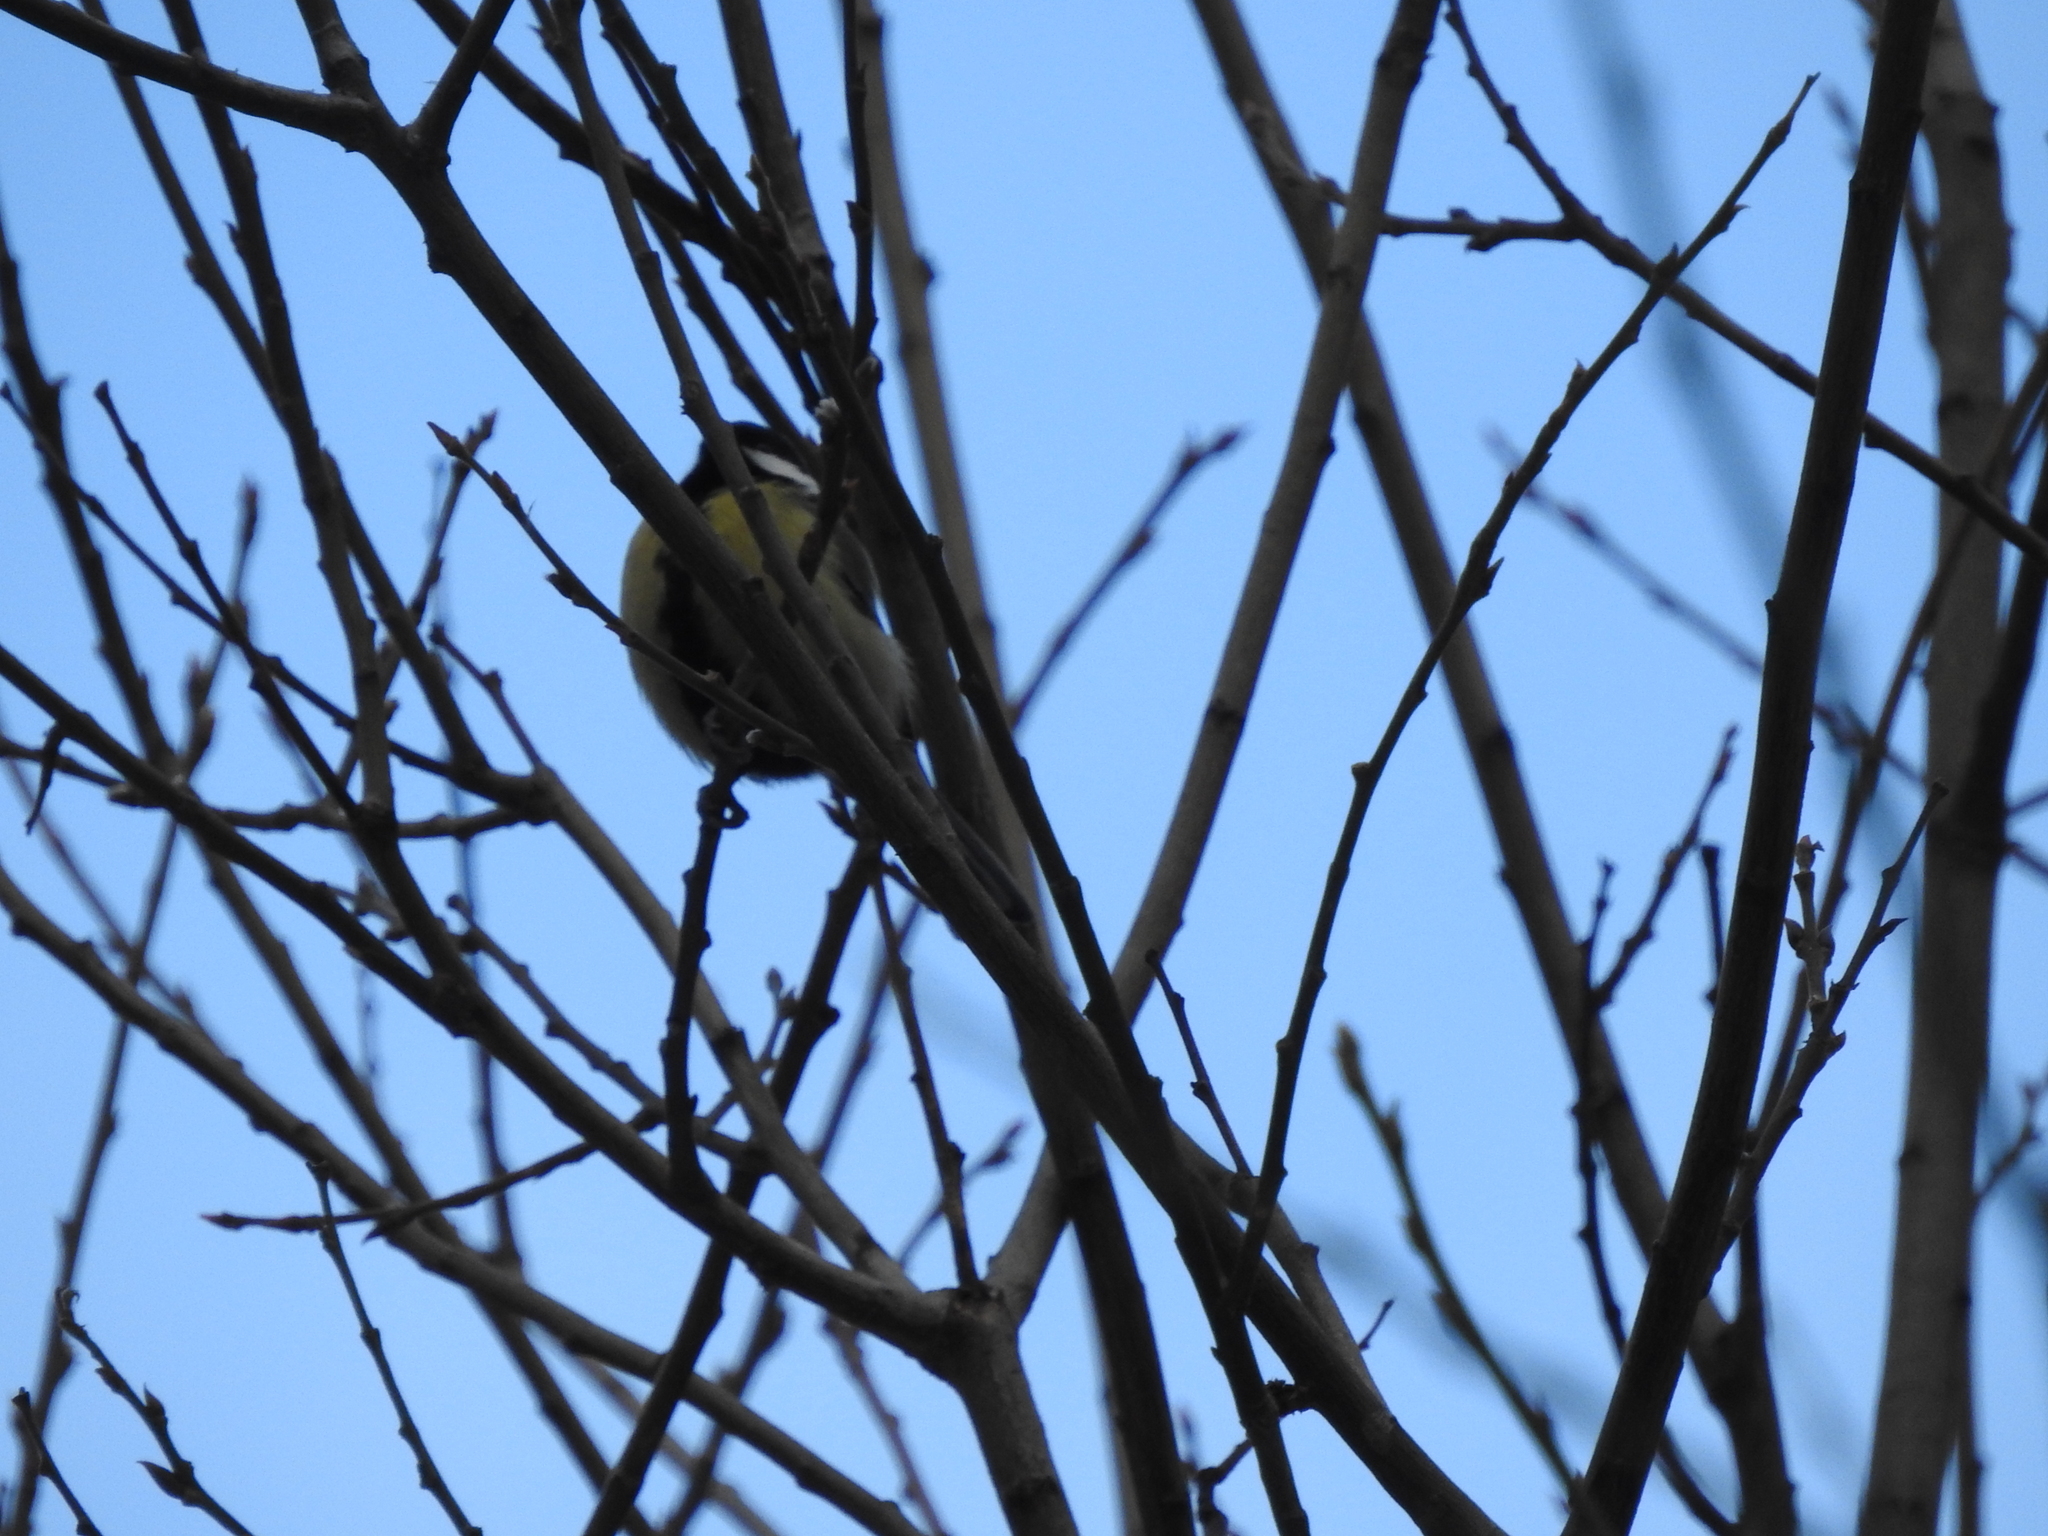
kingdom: Animalia
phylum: Chordata
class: Aves
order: Passeriformes
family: Paridae
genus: Parus
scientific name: Parus major
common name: Great tit
